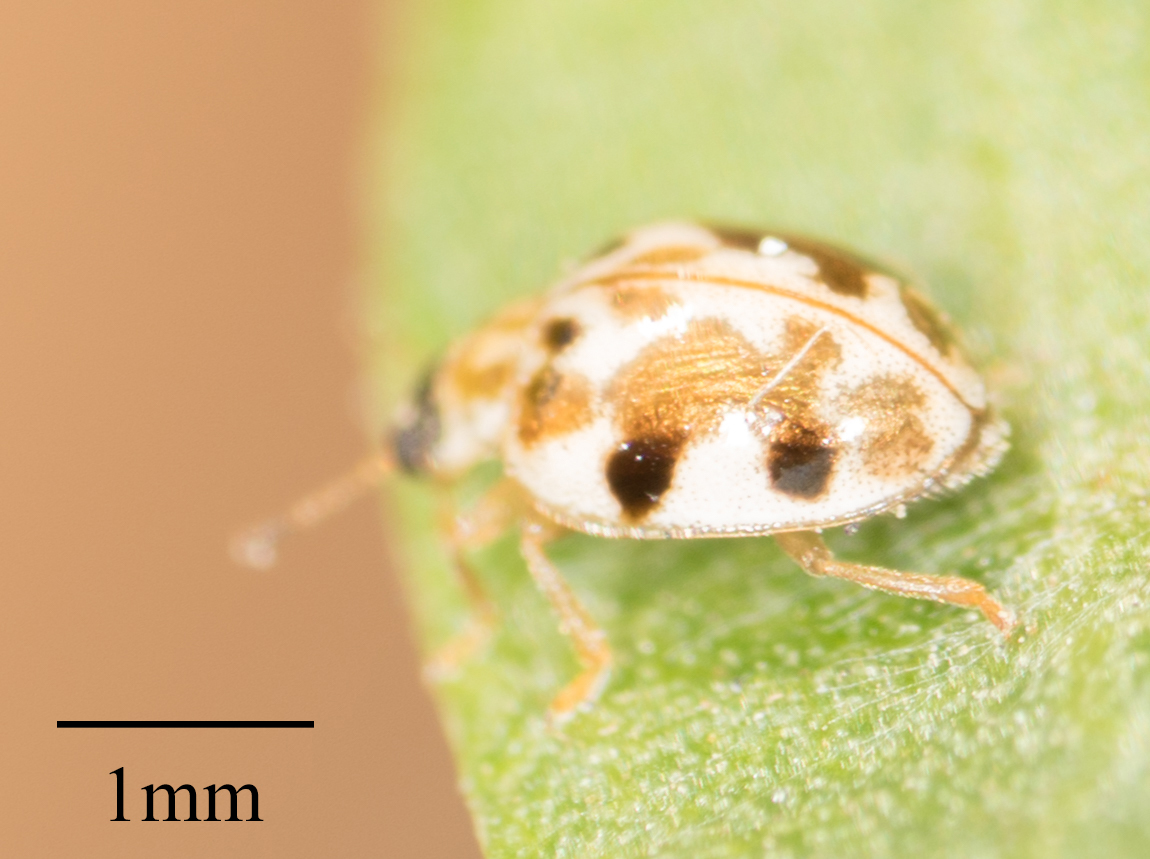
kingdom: Animalia
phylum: Arthropoda
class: Insecta
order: Coleoptera
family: Coccinellidae
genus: Psyllobora
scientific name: Psyllobora vigintimaculata
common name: Ladybird beetle
